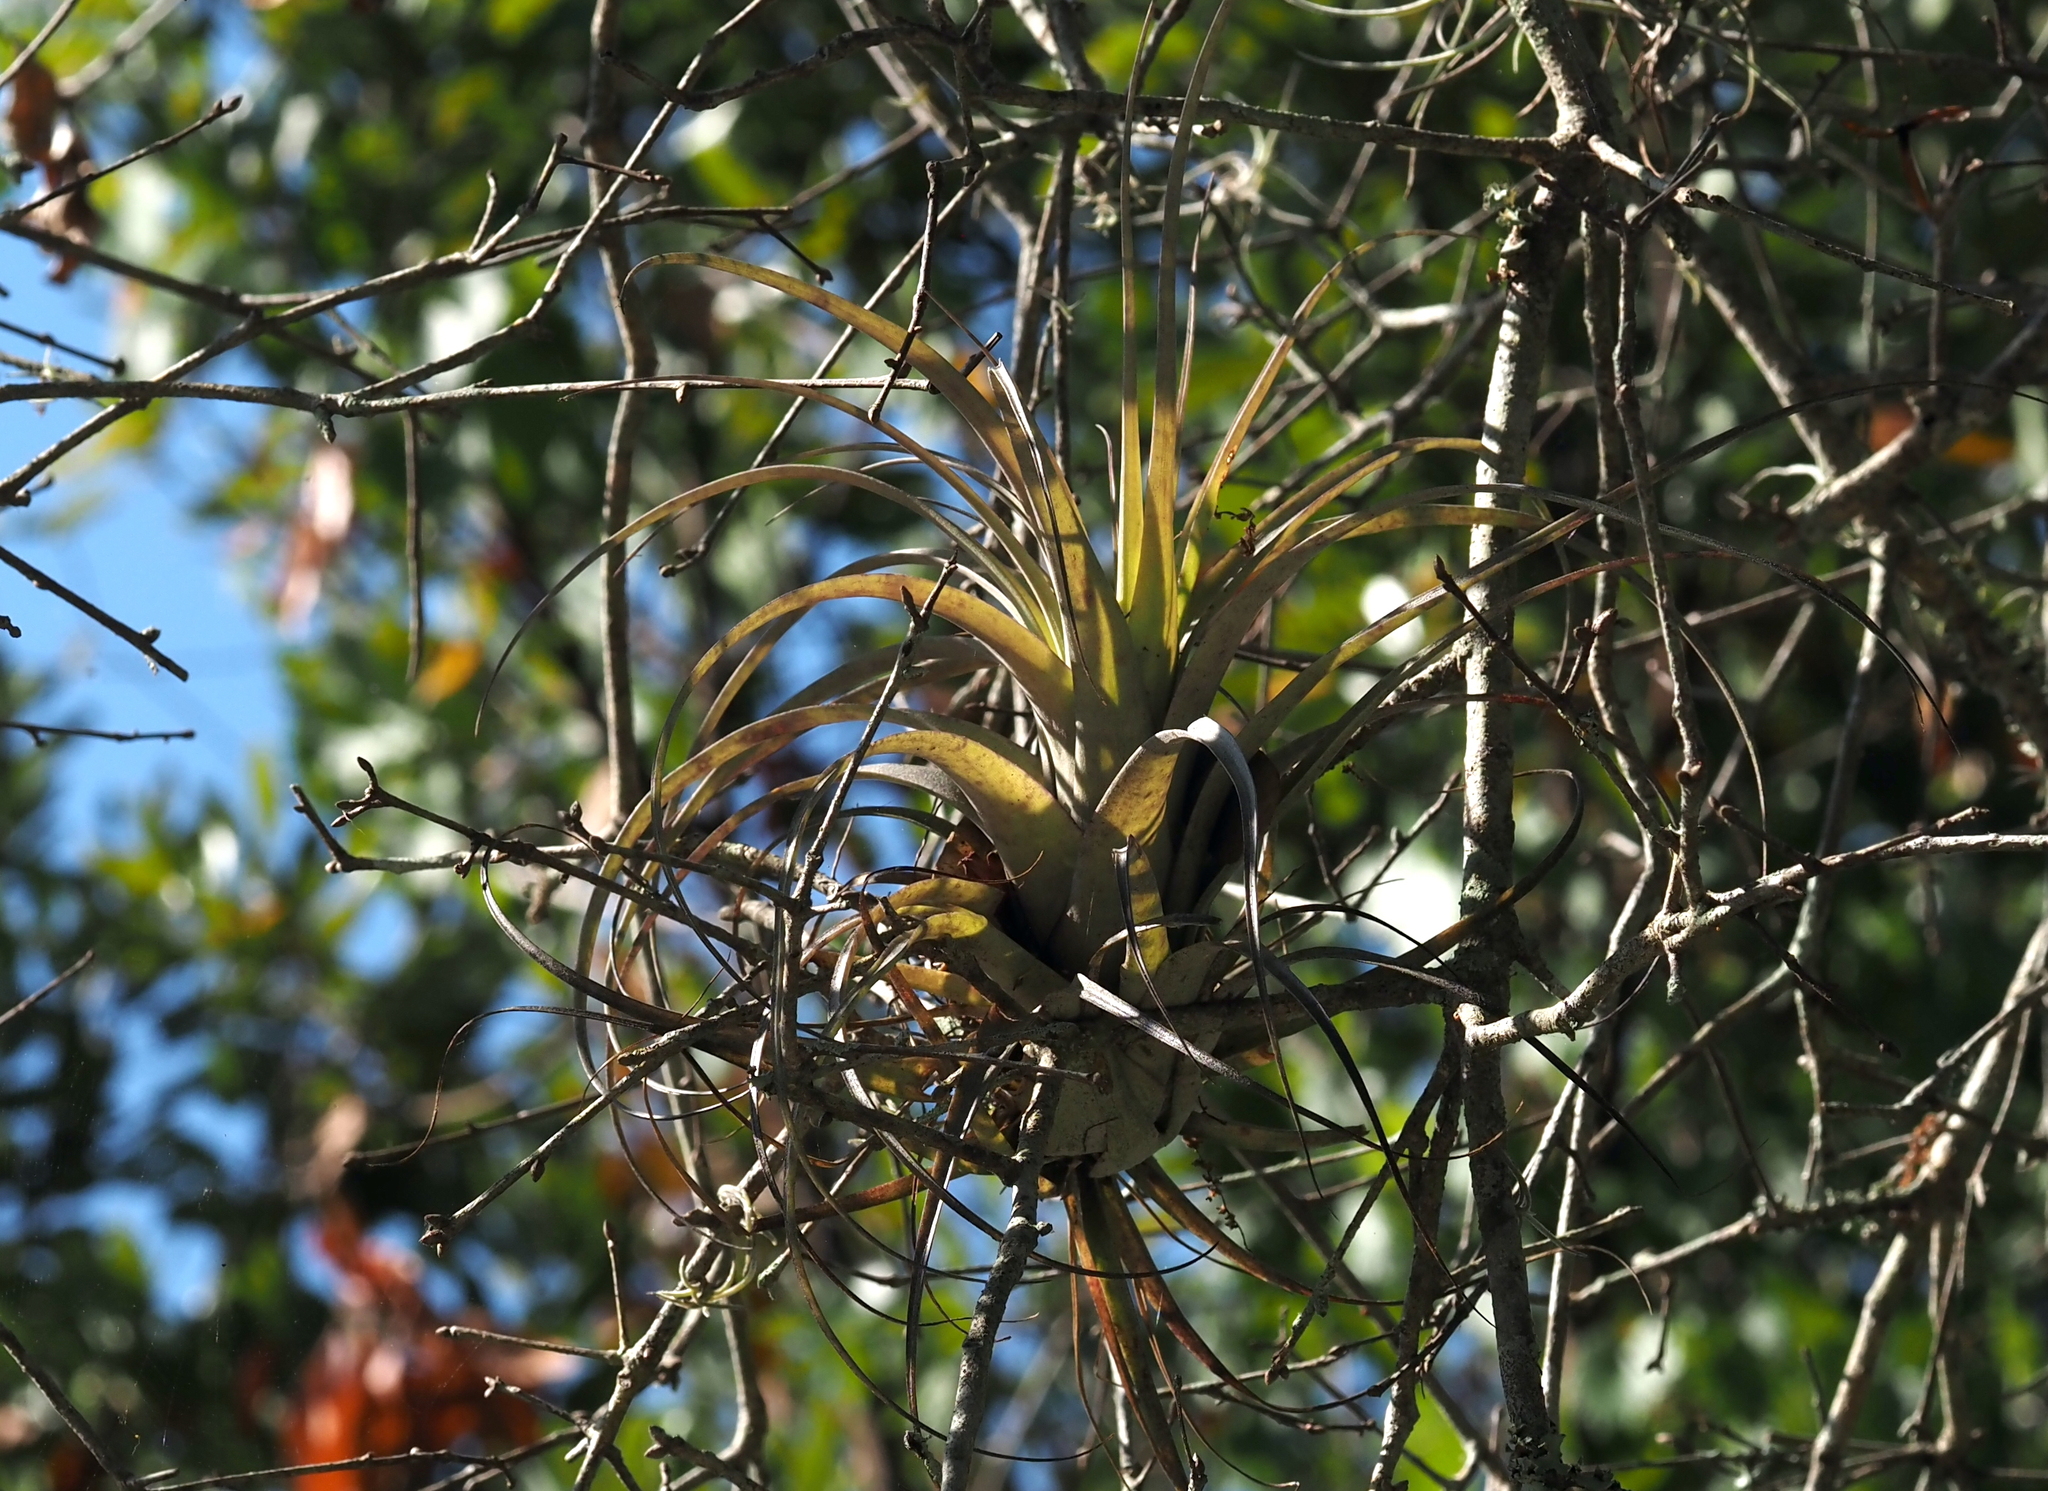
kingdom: Plantae
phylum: Tracheophyta
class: Liliopsida
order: Poales
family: Bromeliaceae
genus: Tillandsia
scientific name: Tillandsia utriculata
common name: Wild pine
